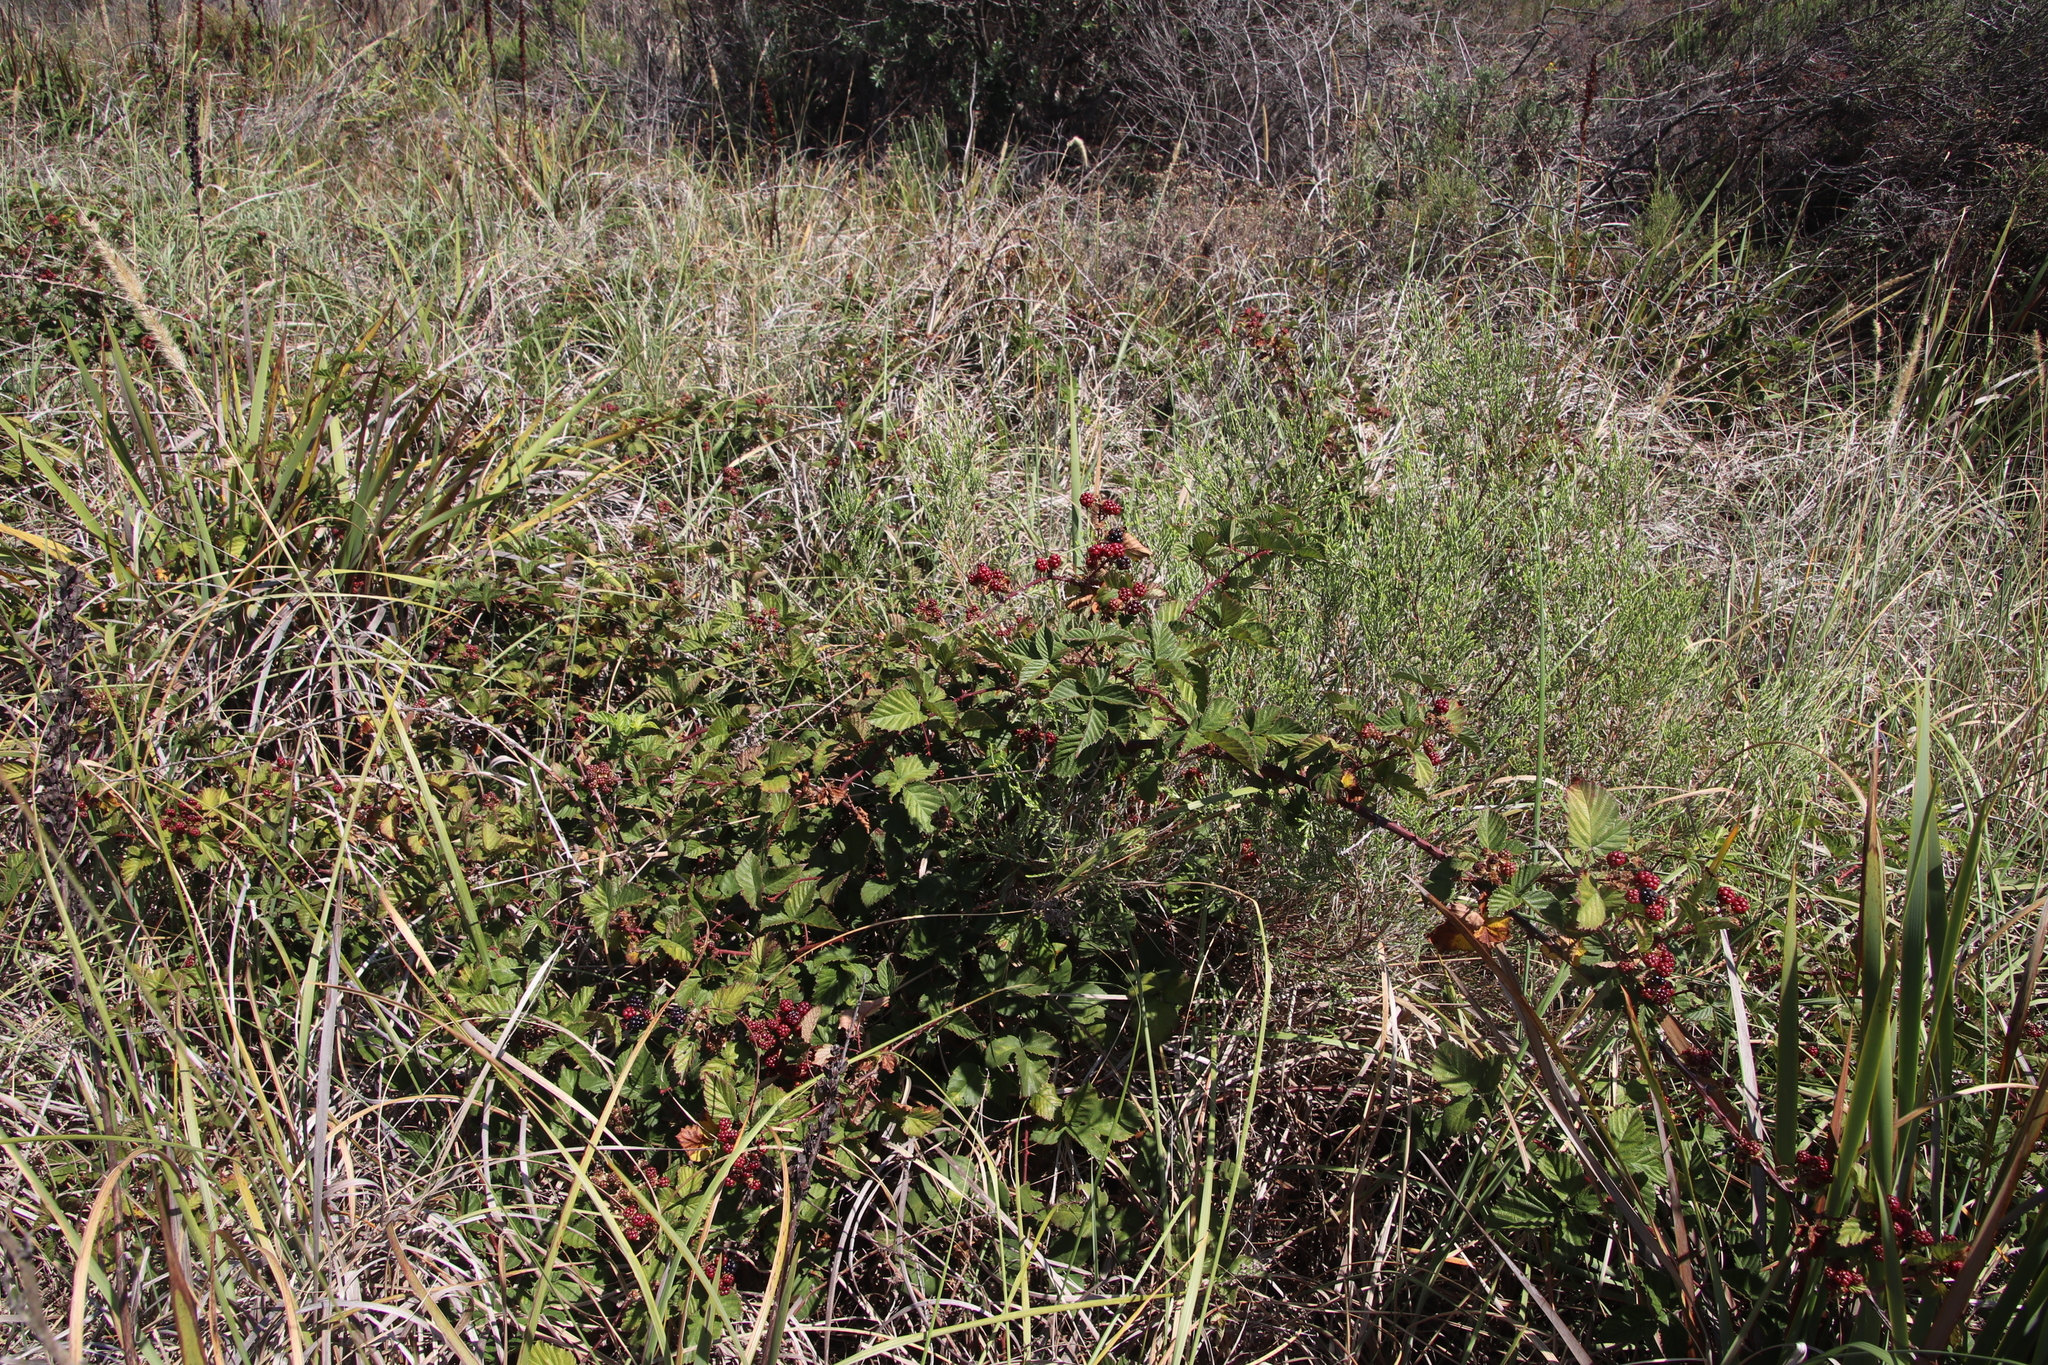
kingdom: Plantae
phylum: Tracheophyta
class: Magnoliopsida
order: Rosales
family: Rosaceae
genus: Rubus
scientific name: Rubus affinis
